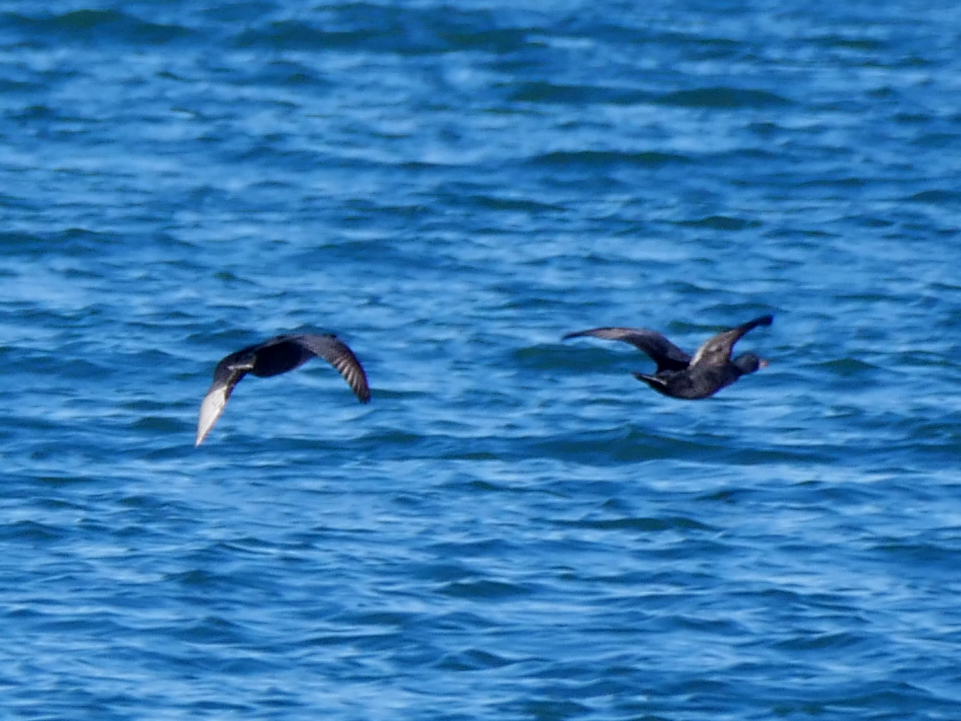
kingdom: Animalia
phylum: Chordata
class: Aves
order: Anseriformes
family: Anatidae
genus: Melanitta
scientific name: Melanitta nigra
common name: Common scoter
